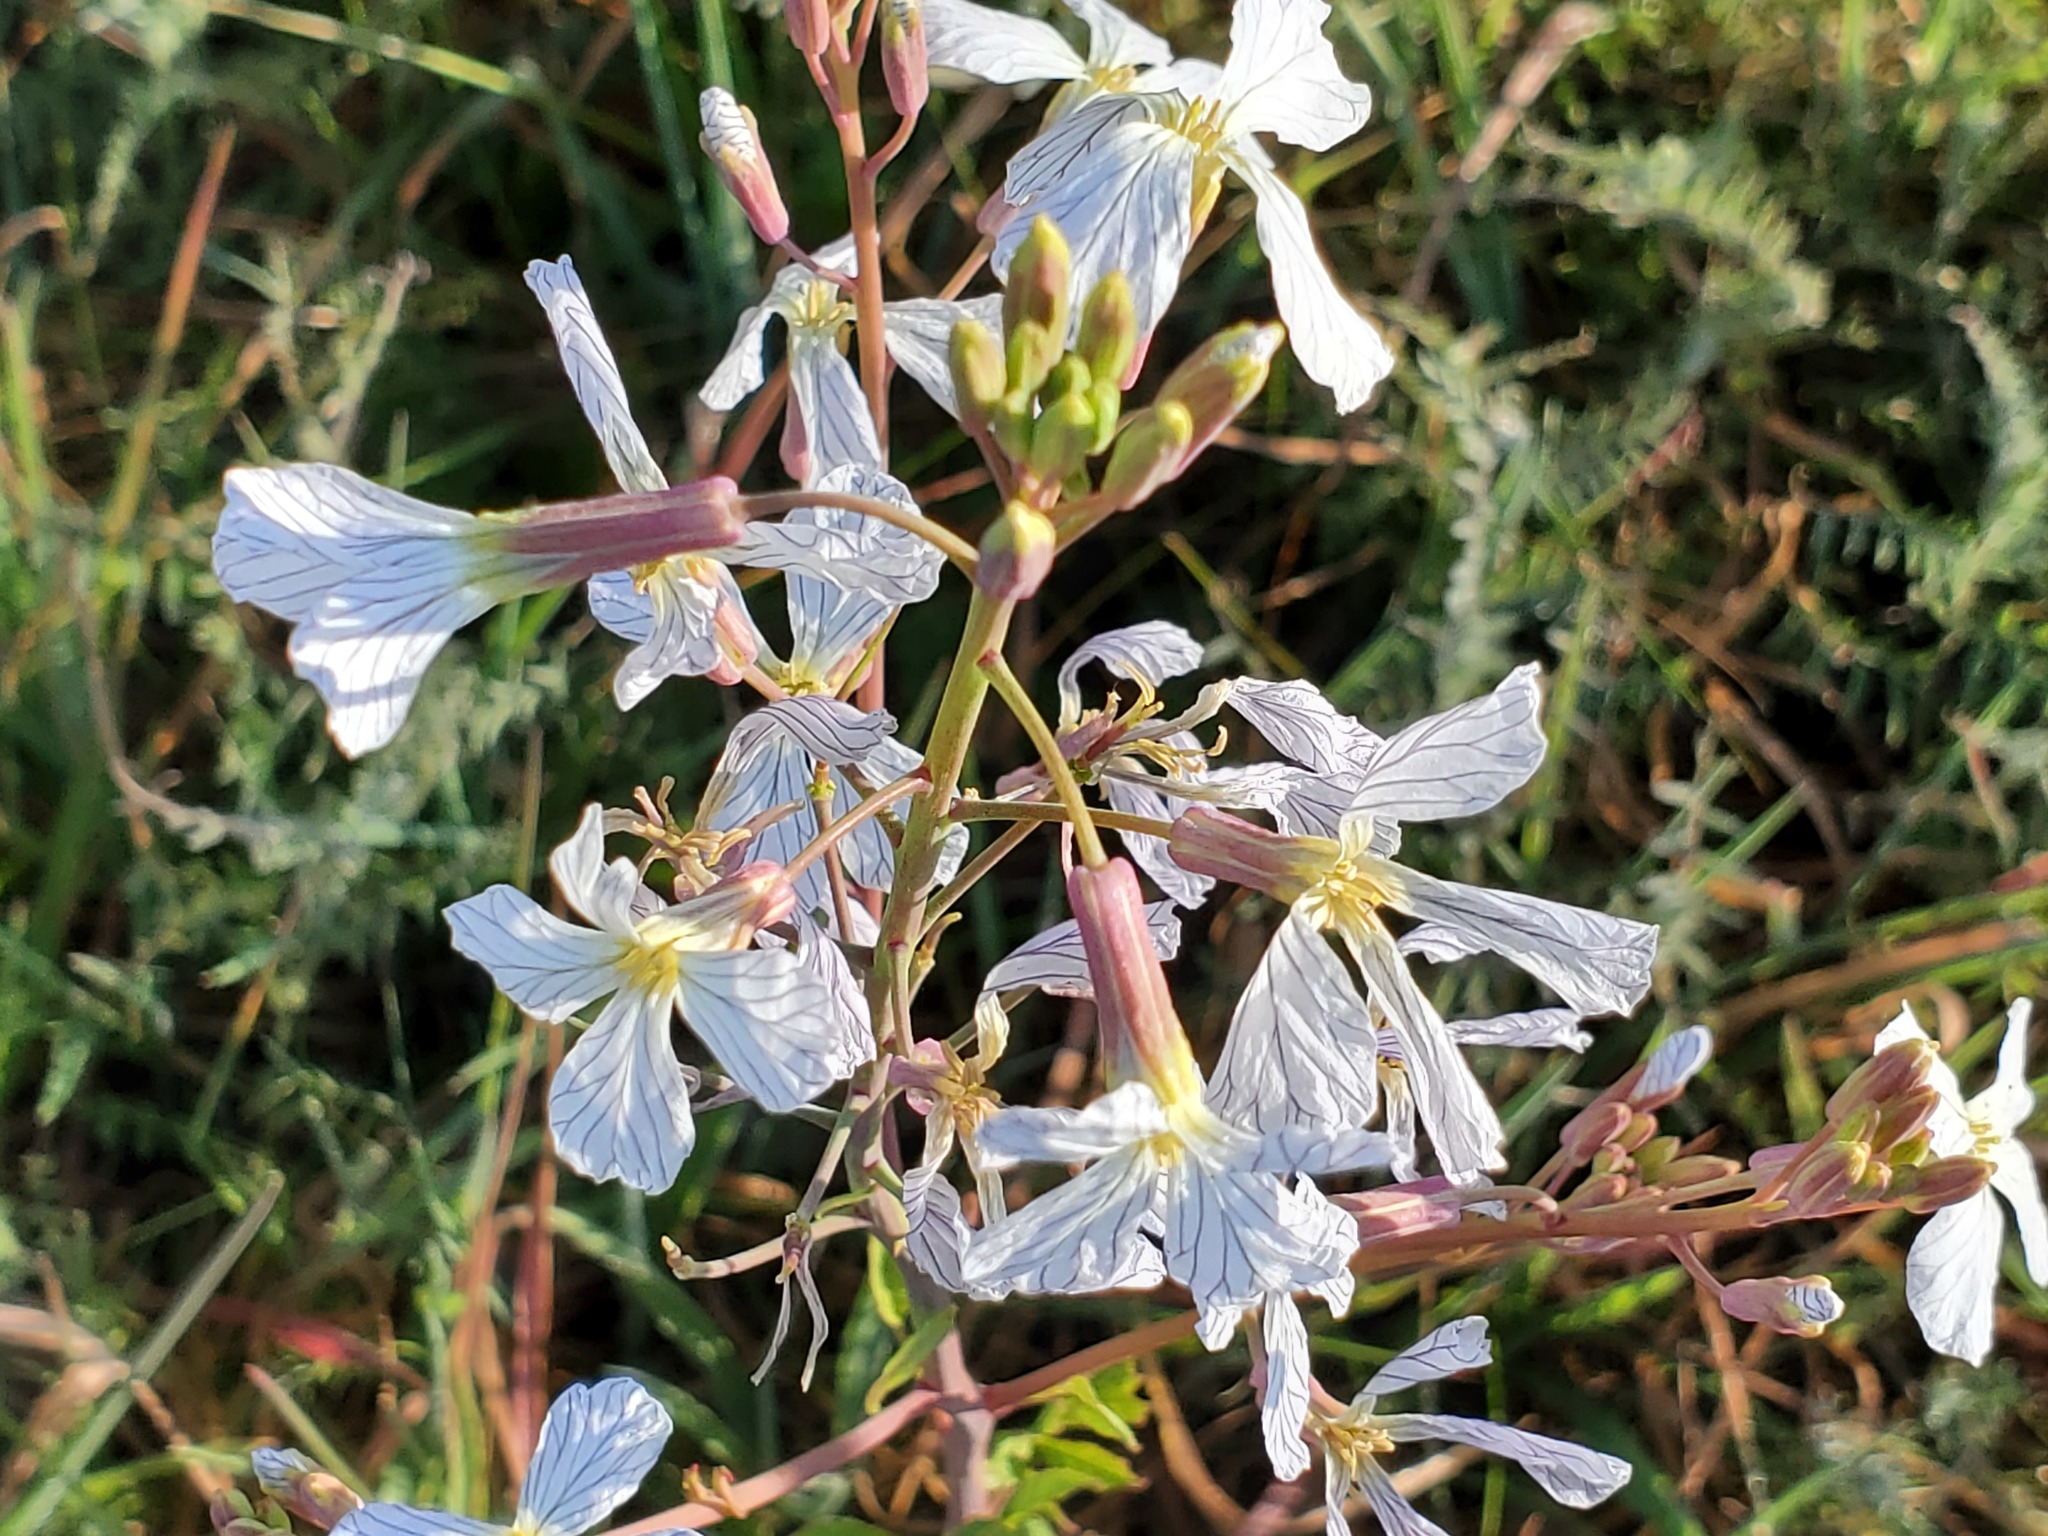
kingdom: Plantae
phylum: Tracheophyta
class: Magnoliopsida
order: Brassicales
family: Brassicaceae
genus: Raphanus
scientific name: Raphanus raphanistrum
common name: Wild radish
